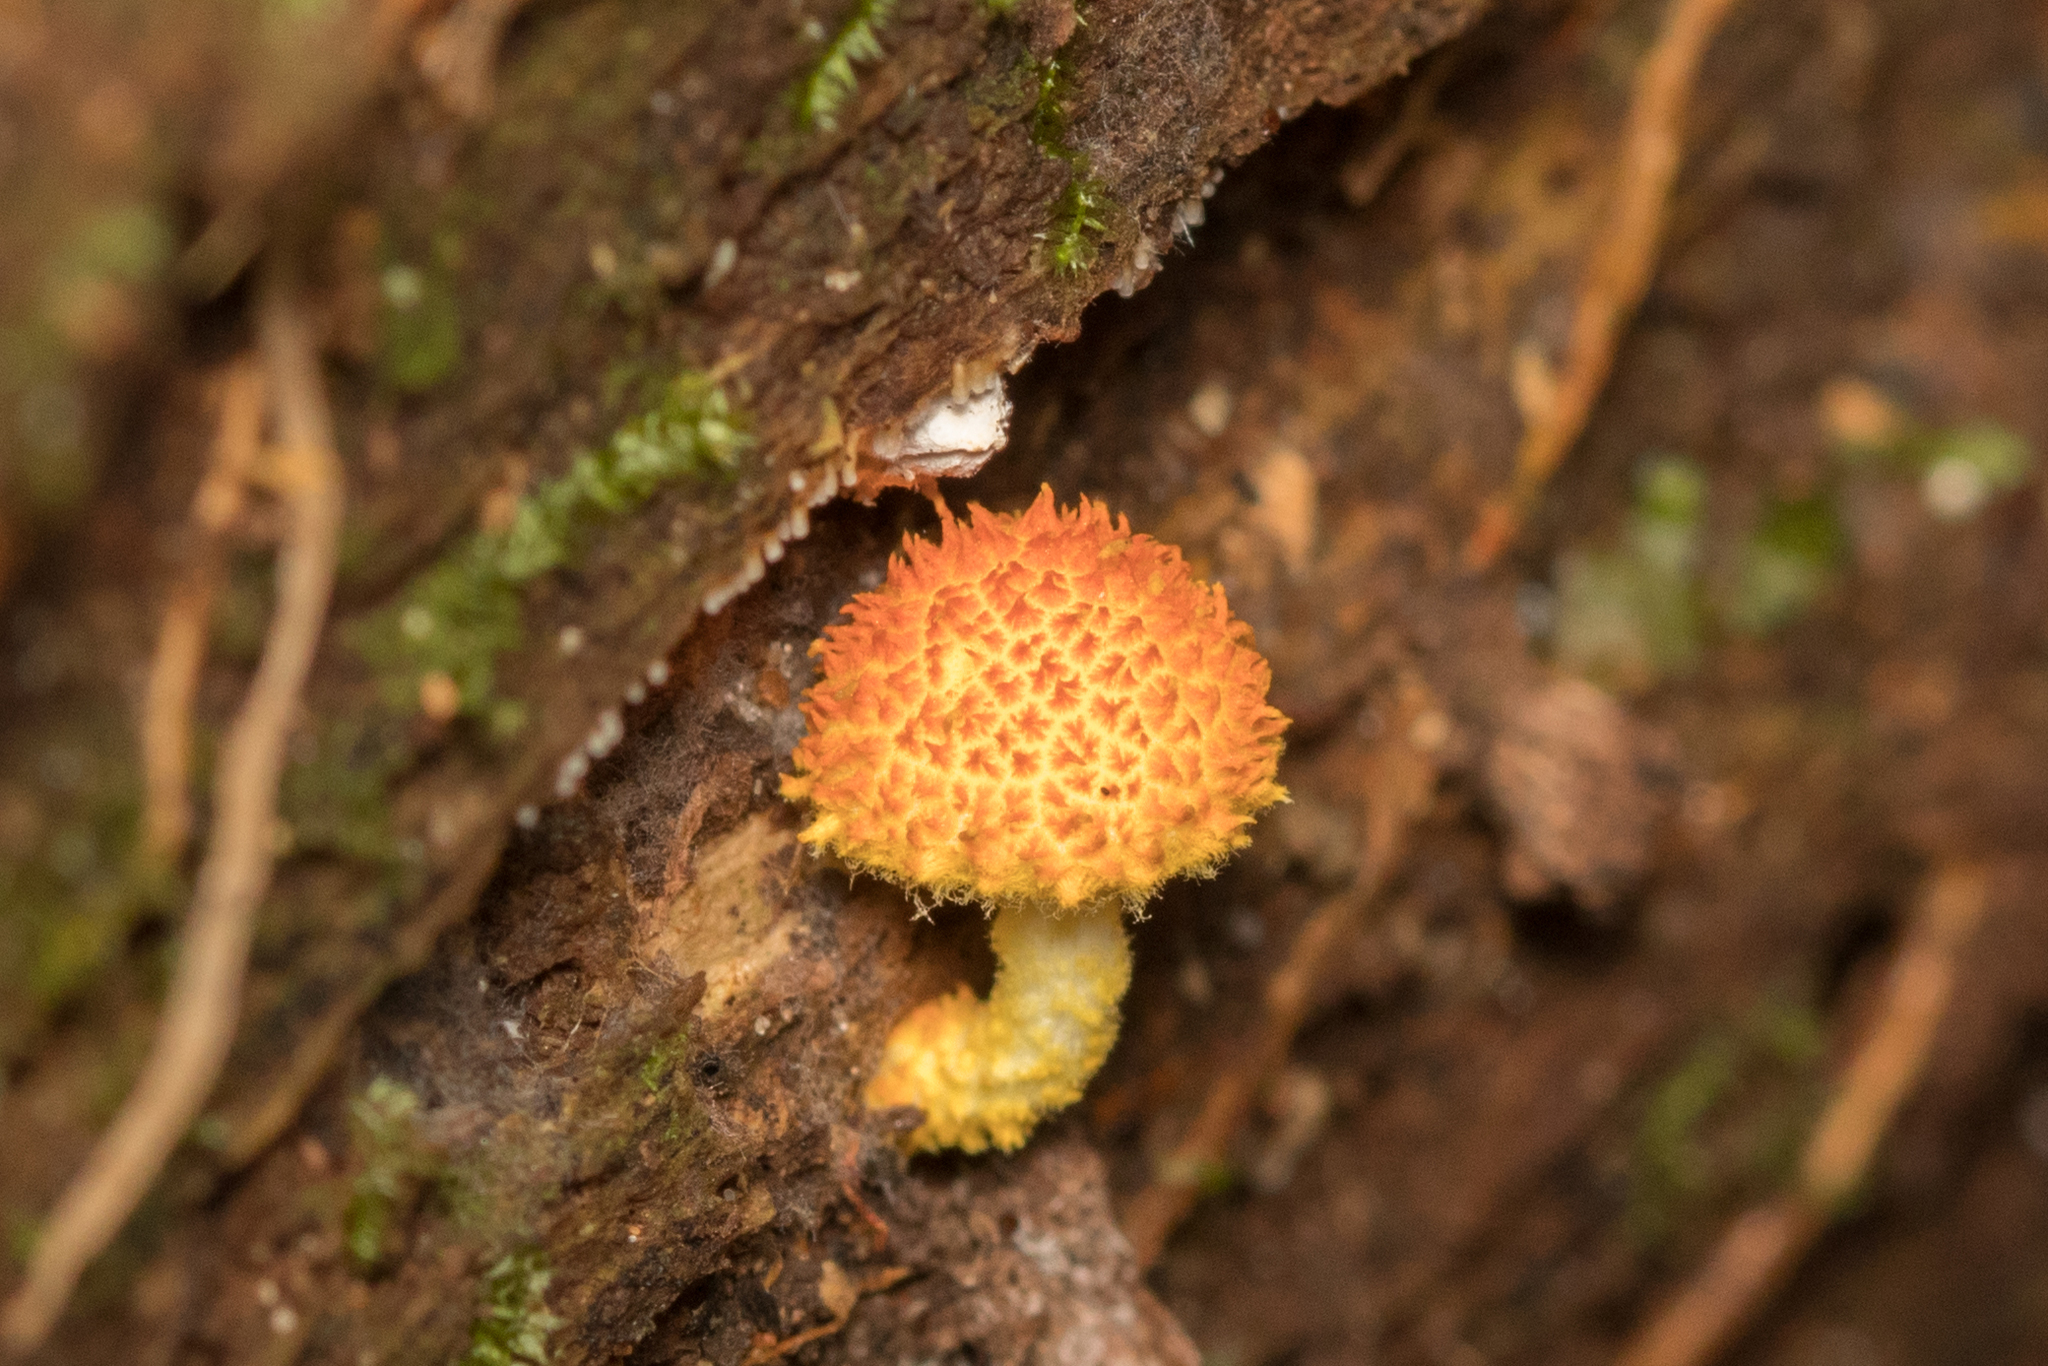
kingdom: Fungi
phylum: Basidiomycota
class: Agaricomycetes
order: Agaricales
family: Physalacriaceae
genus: Cyptotrama
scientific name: Cyptotrama asprata
